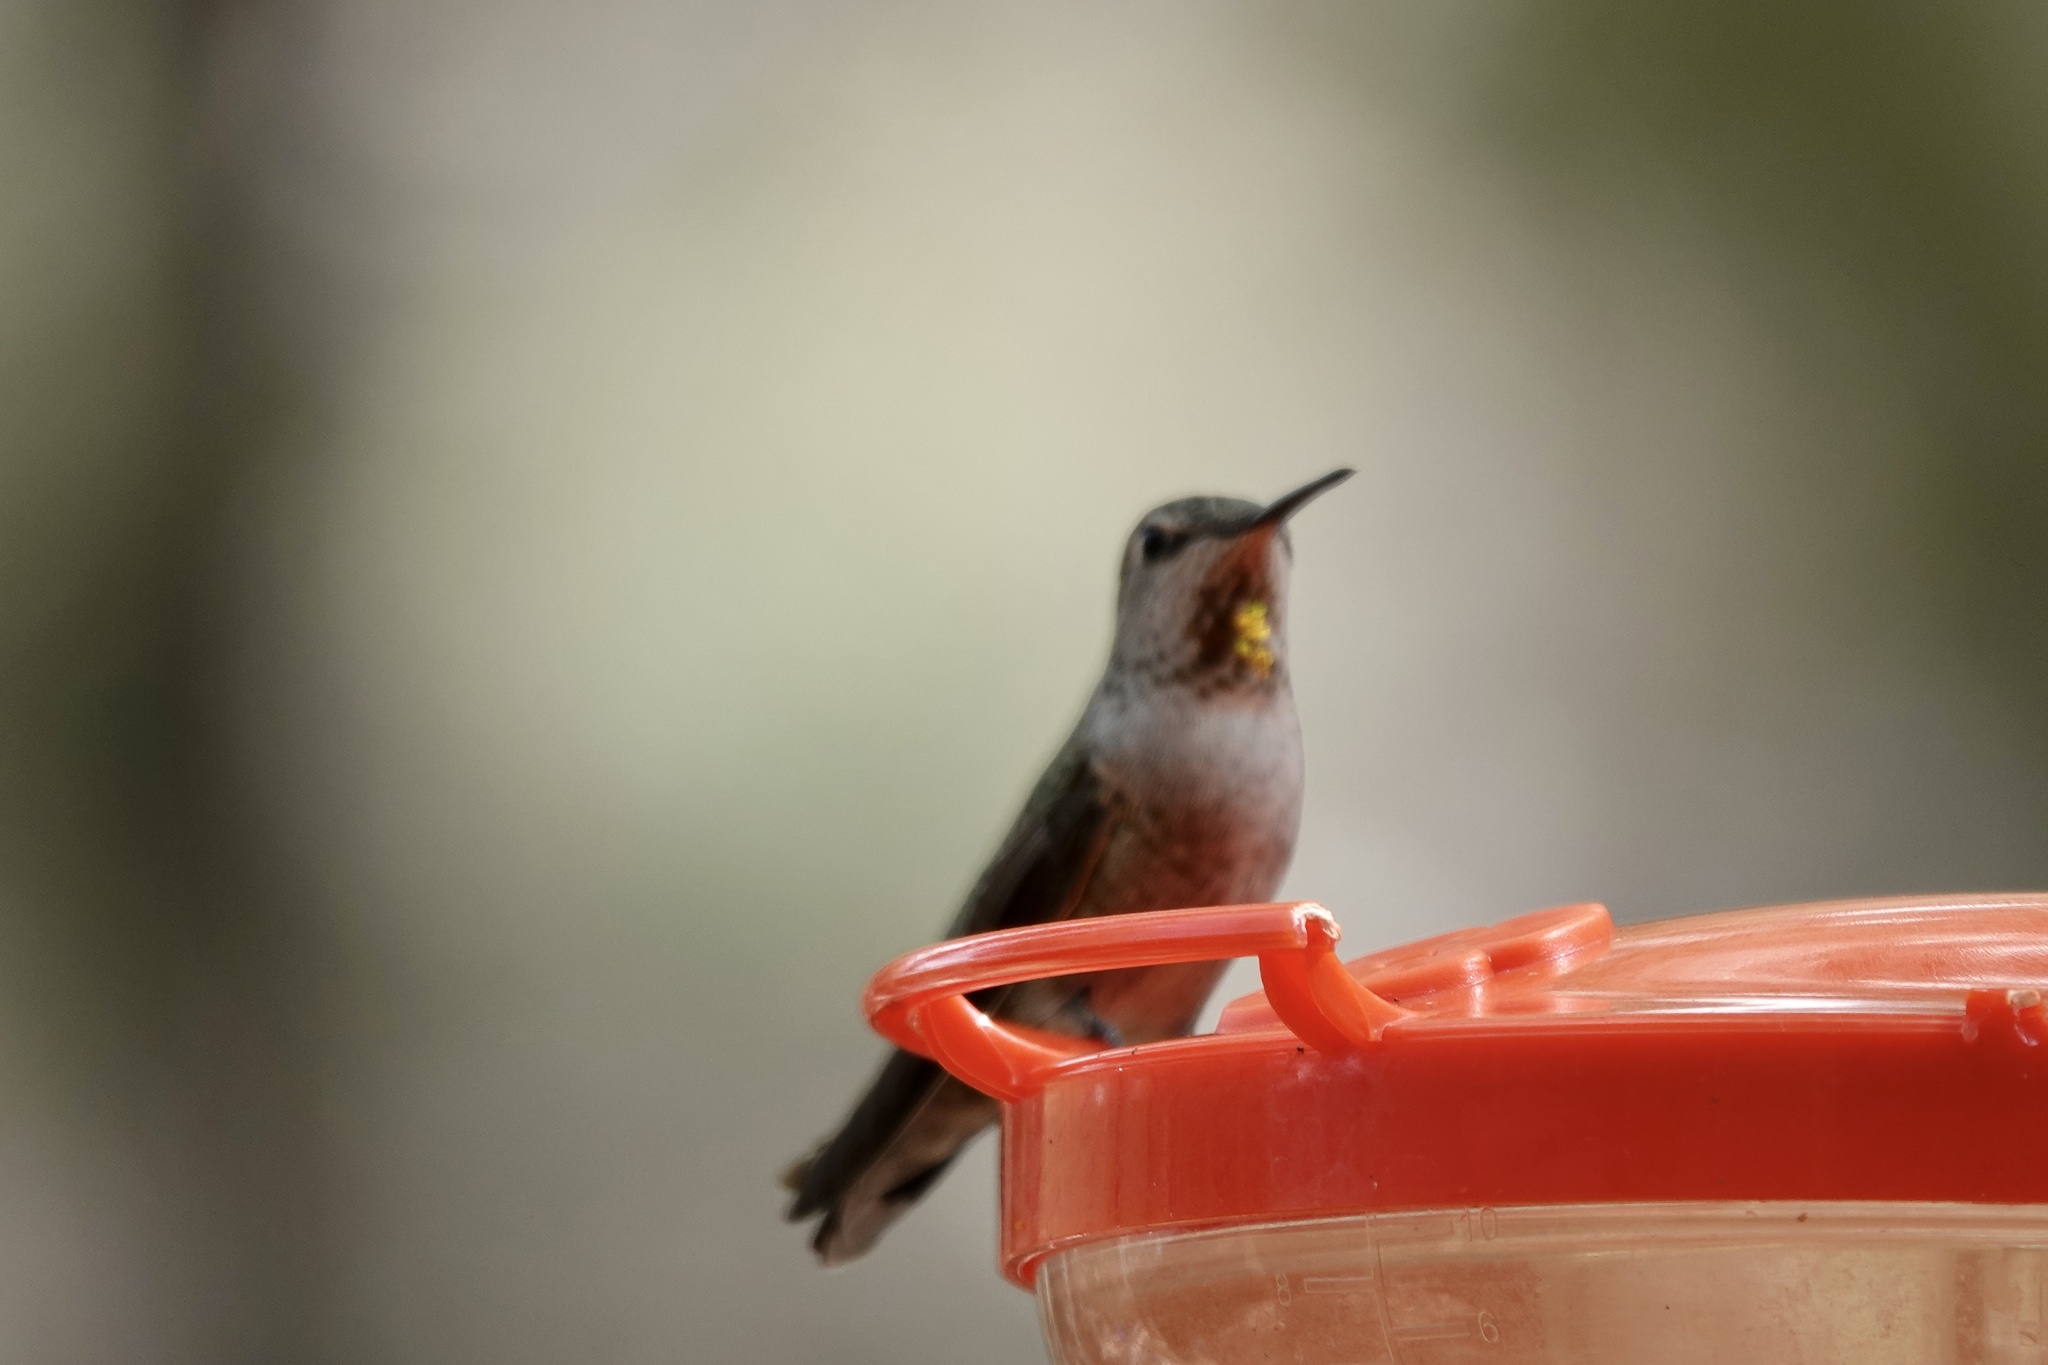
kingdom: Animalia
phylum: Chordata
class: Aves
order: Apodiformes
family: Trochilidae
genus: Calypte
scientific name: Calypte anna
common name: Anna's hummingbird
